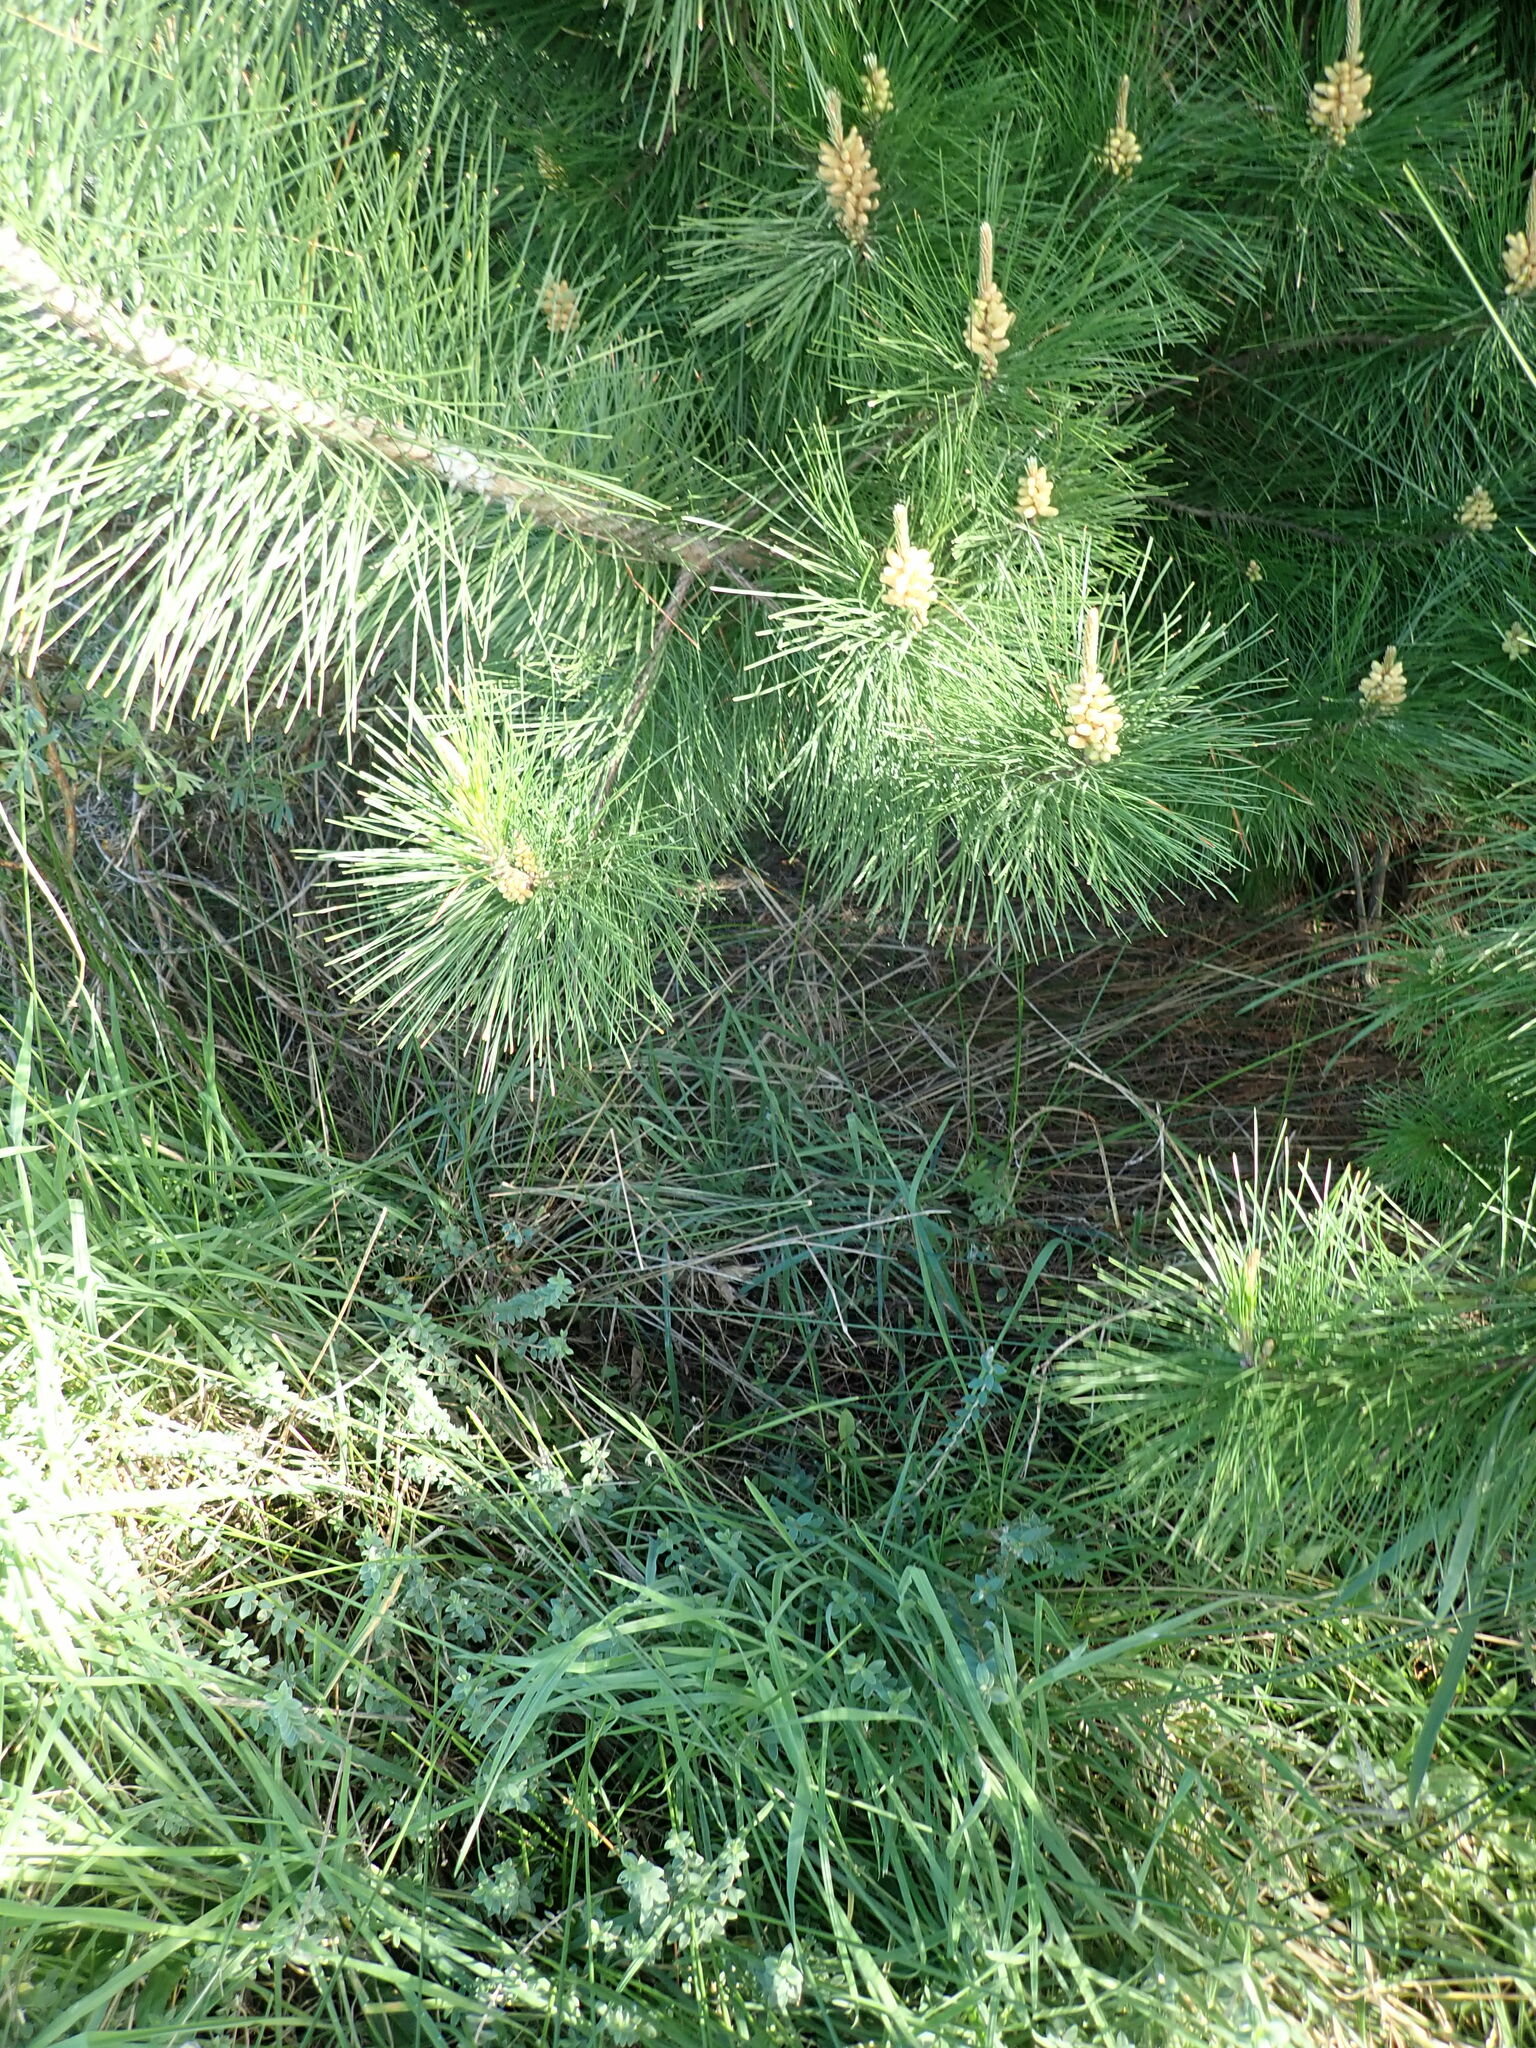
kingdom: Plantae
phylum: Tracheophyta
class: Pinopsida
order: Pinales
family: Pinaceae
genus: Pinus
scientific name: Pinus radiata
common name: Monterey pine
